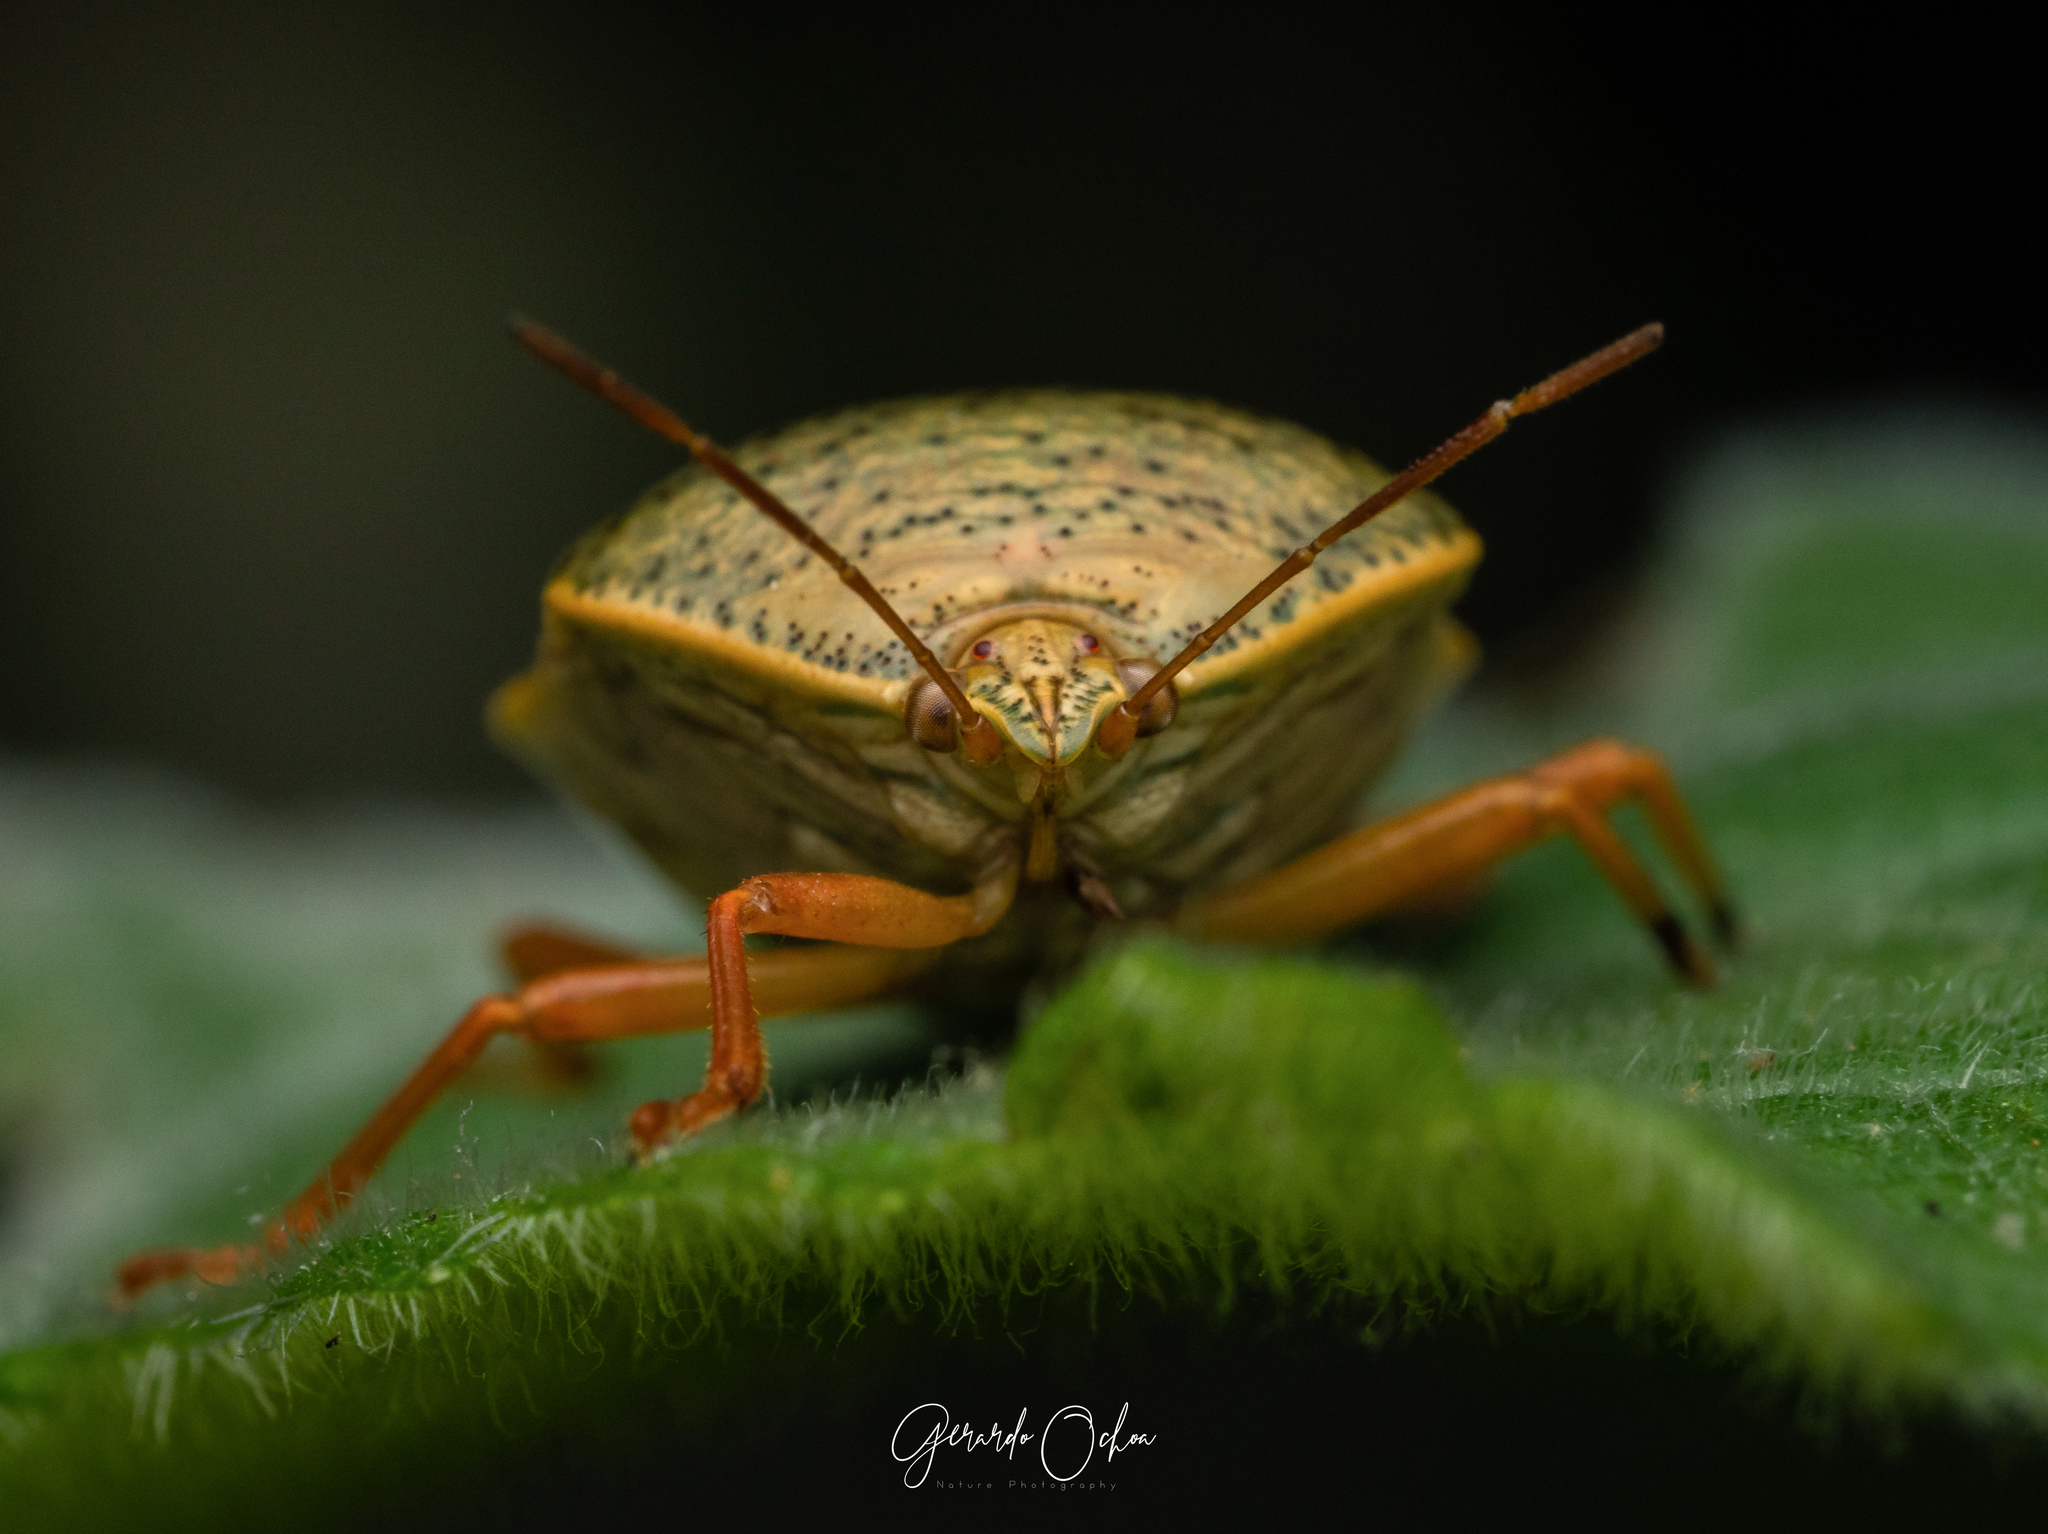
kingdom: Animalia
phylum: Arthropoda
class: Insecta
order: Hemiptera
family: Pentatomidae
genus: Edessa
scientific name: Edessa bifida
